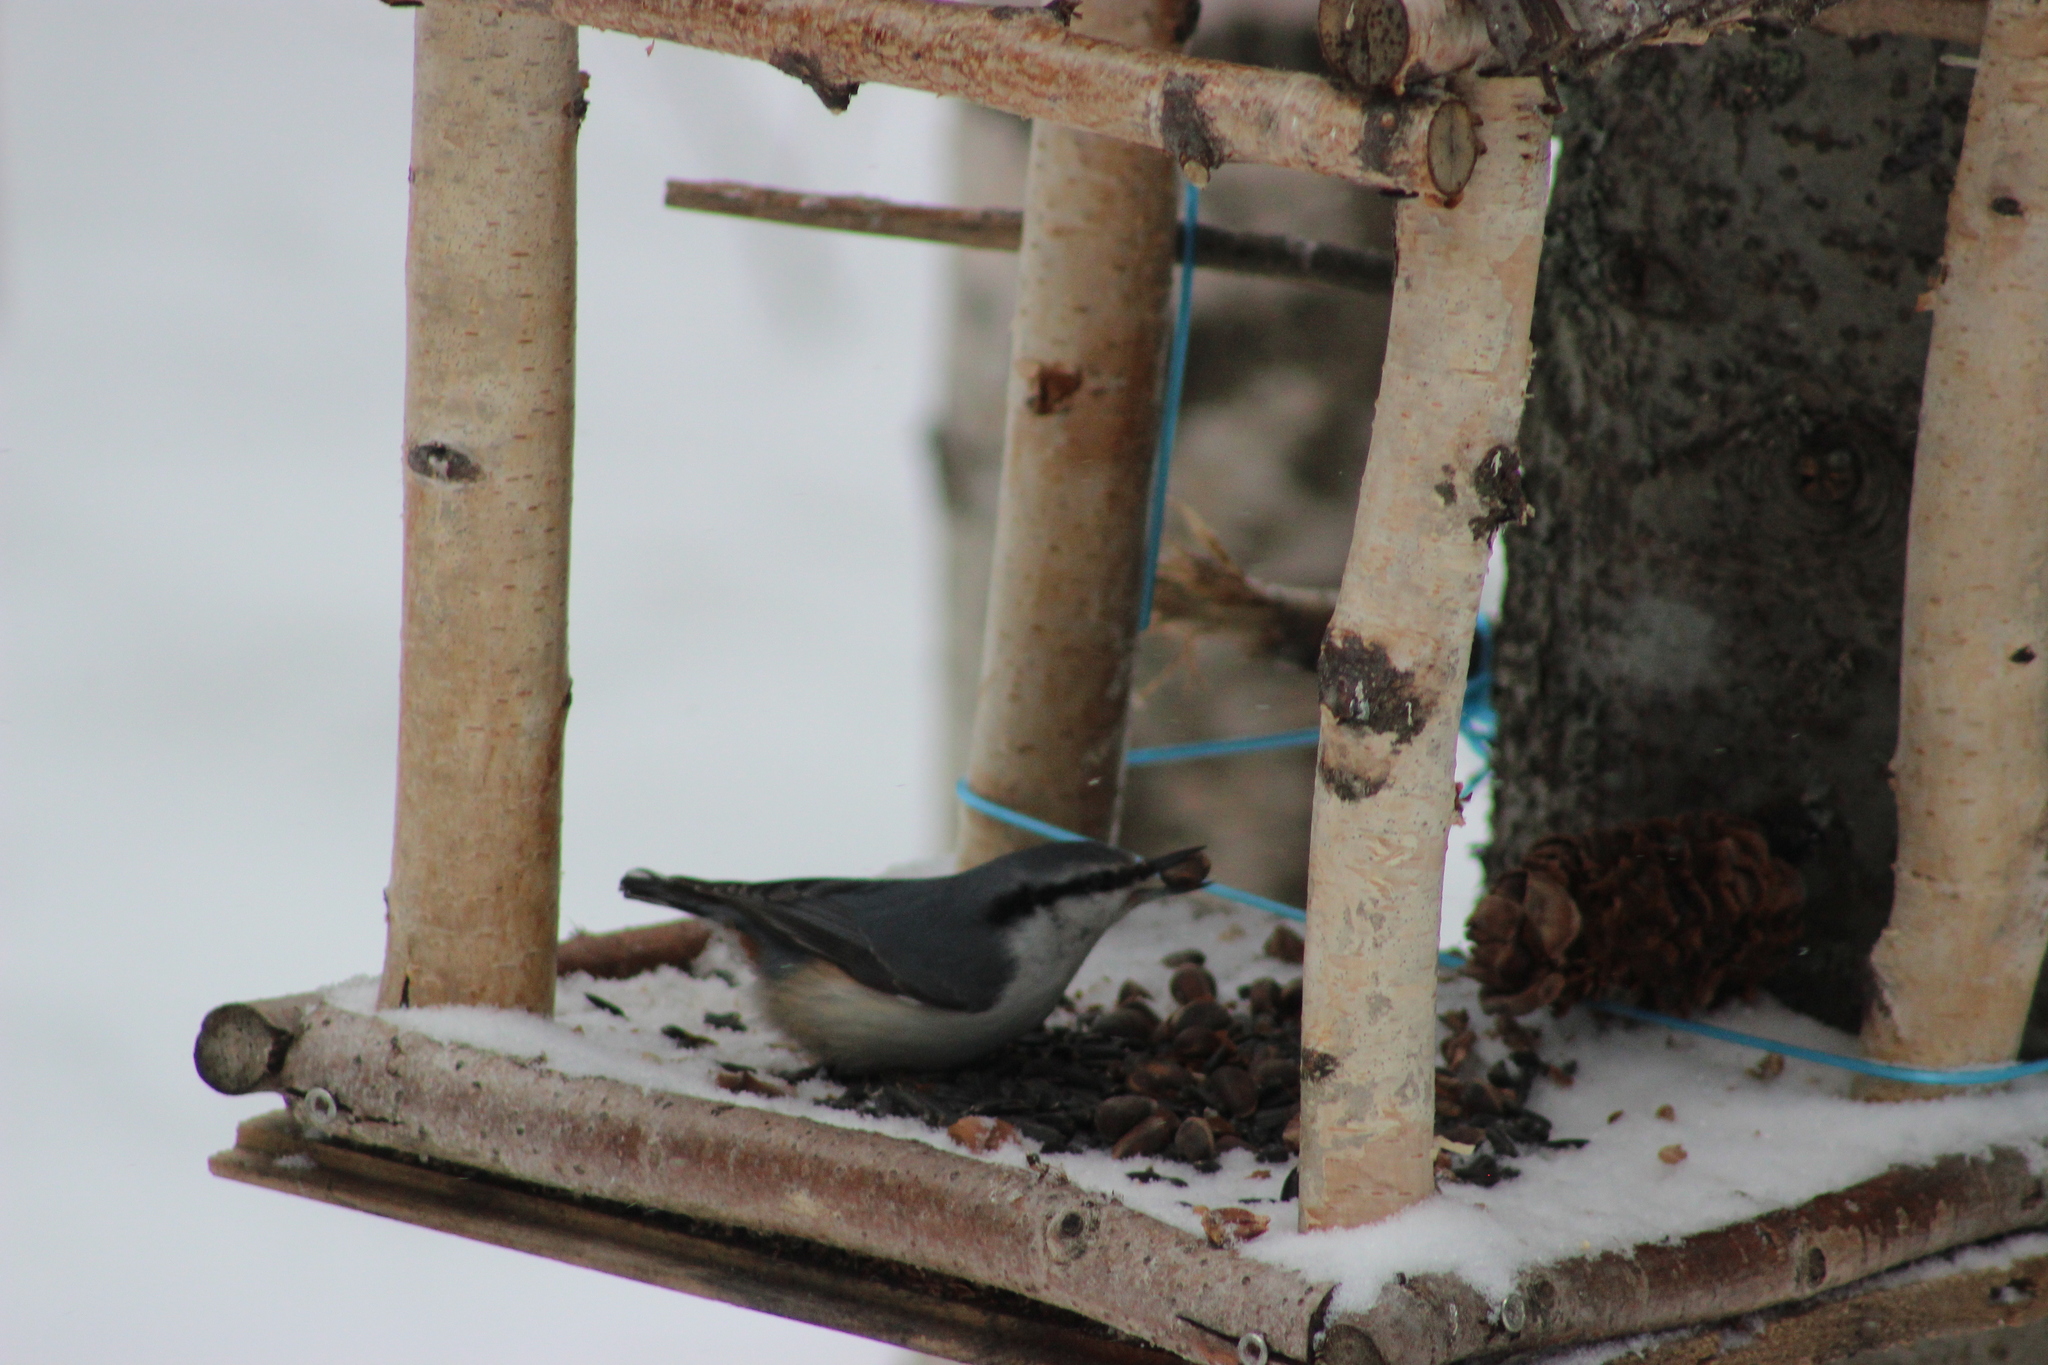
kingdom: Animalia
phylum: Chordata
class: Aves
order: Passeriformes
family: Sittidae
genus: Sitta
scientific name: Sitta europaea
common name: Eurasian nuthatch
